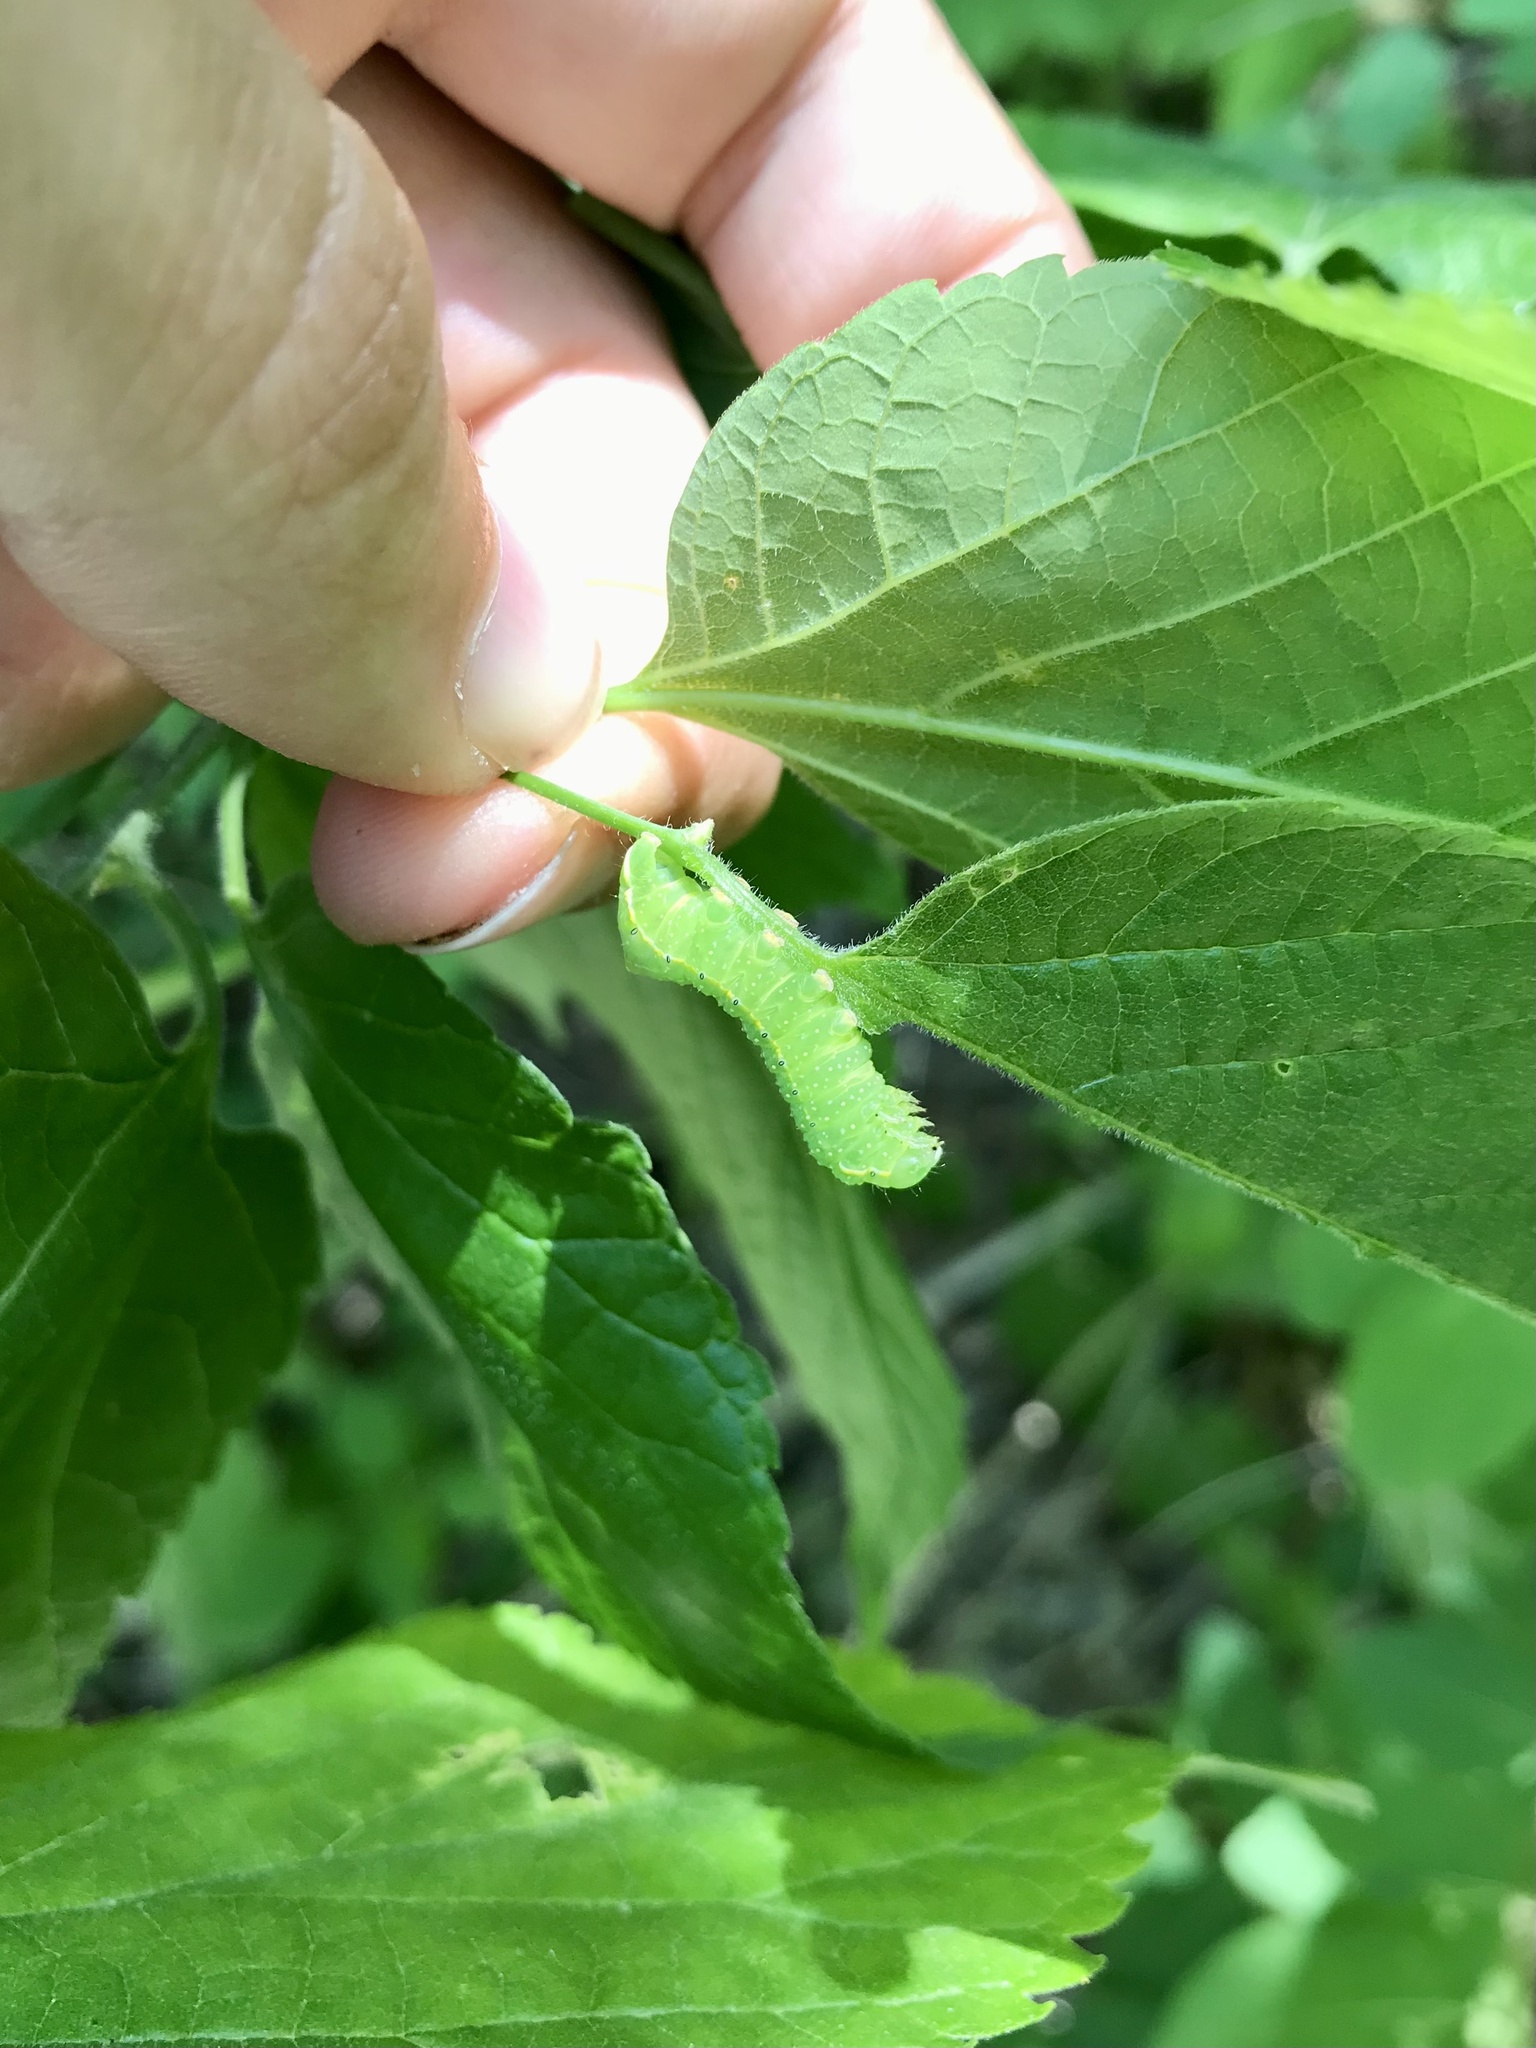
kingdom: Animalia
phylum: Arthropoda
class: Insecta
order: Lepidoptera
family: Noctuidae
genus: Amphipyra
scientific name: Amphipyra pyramidoides
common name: American copper underwing
